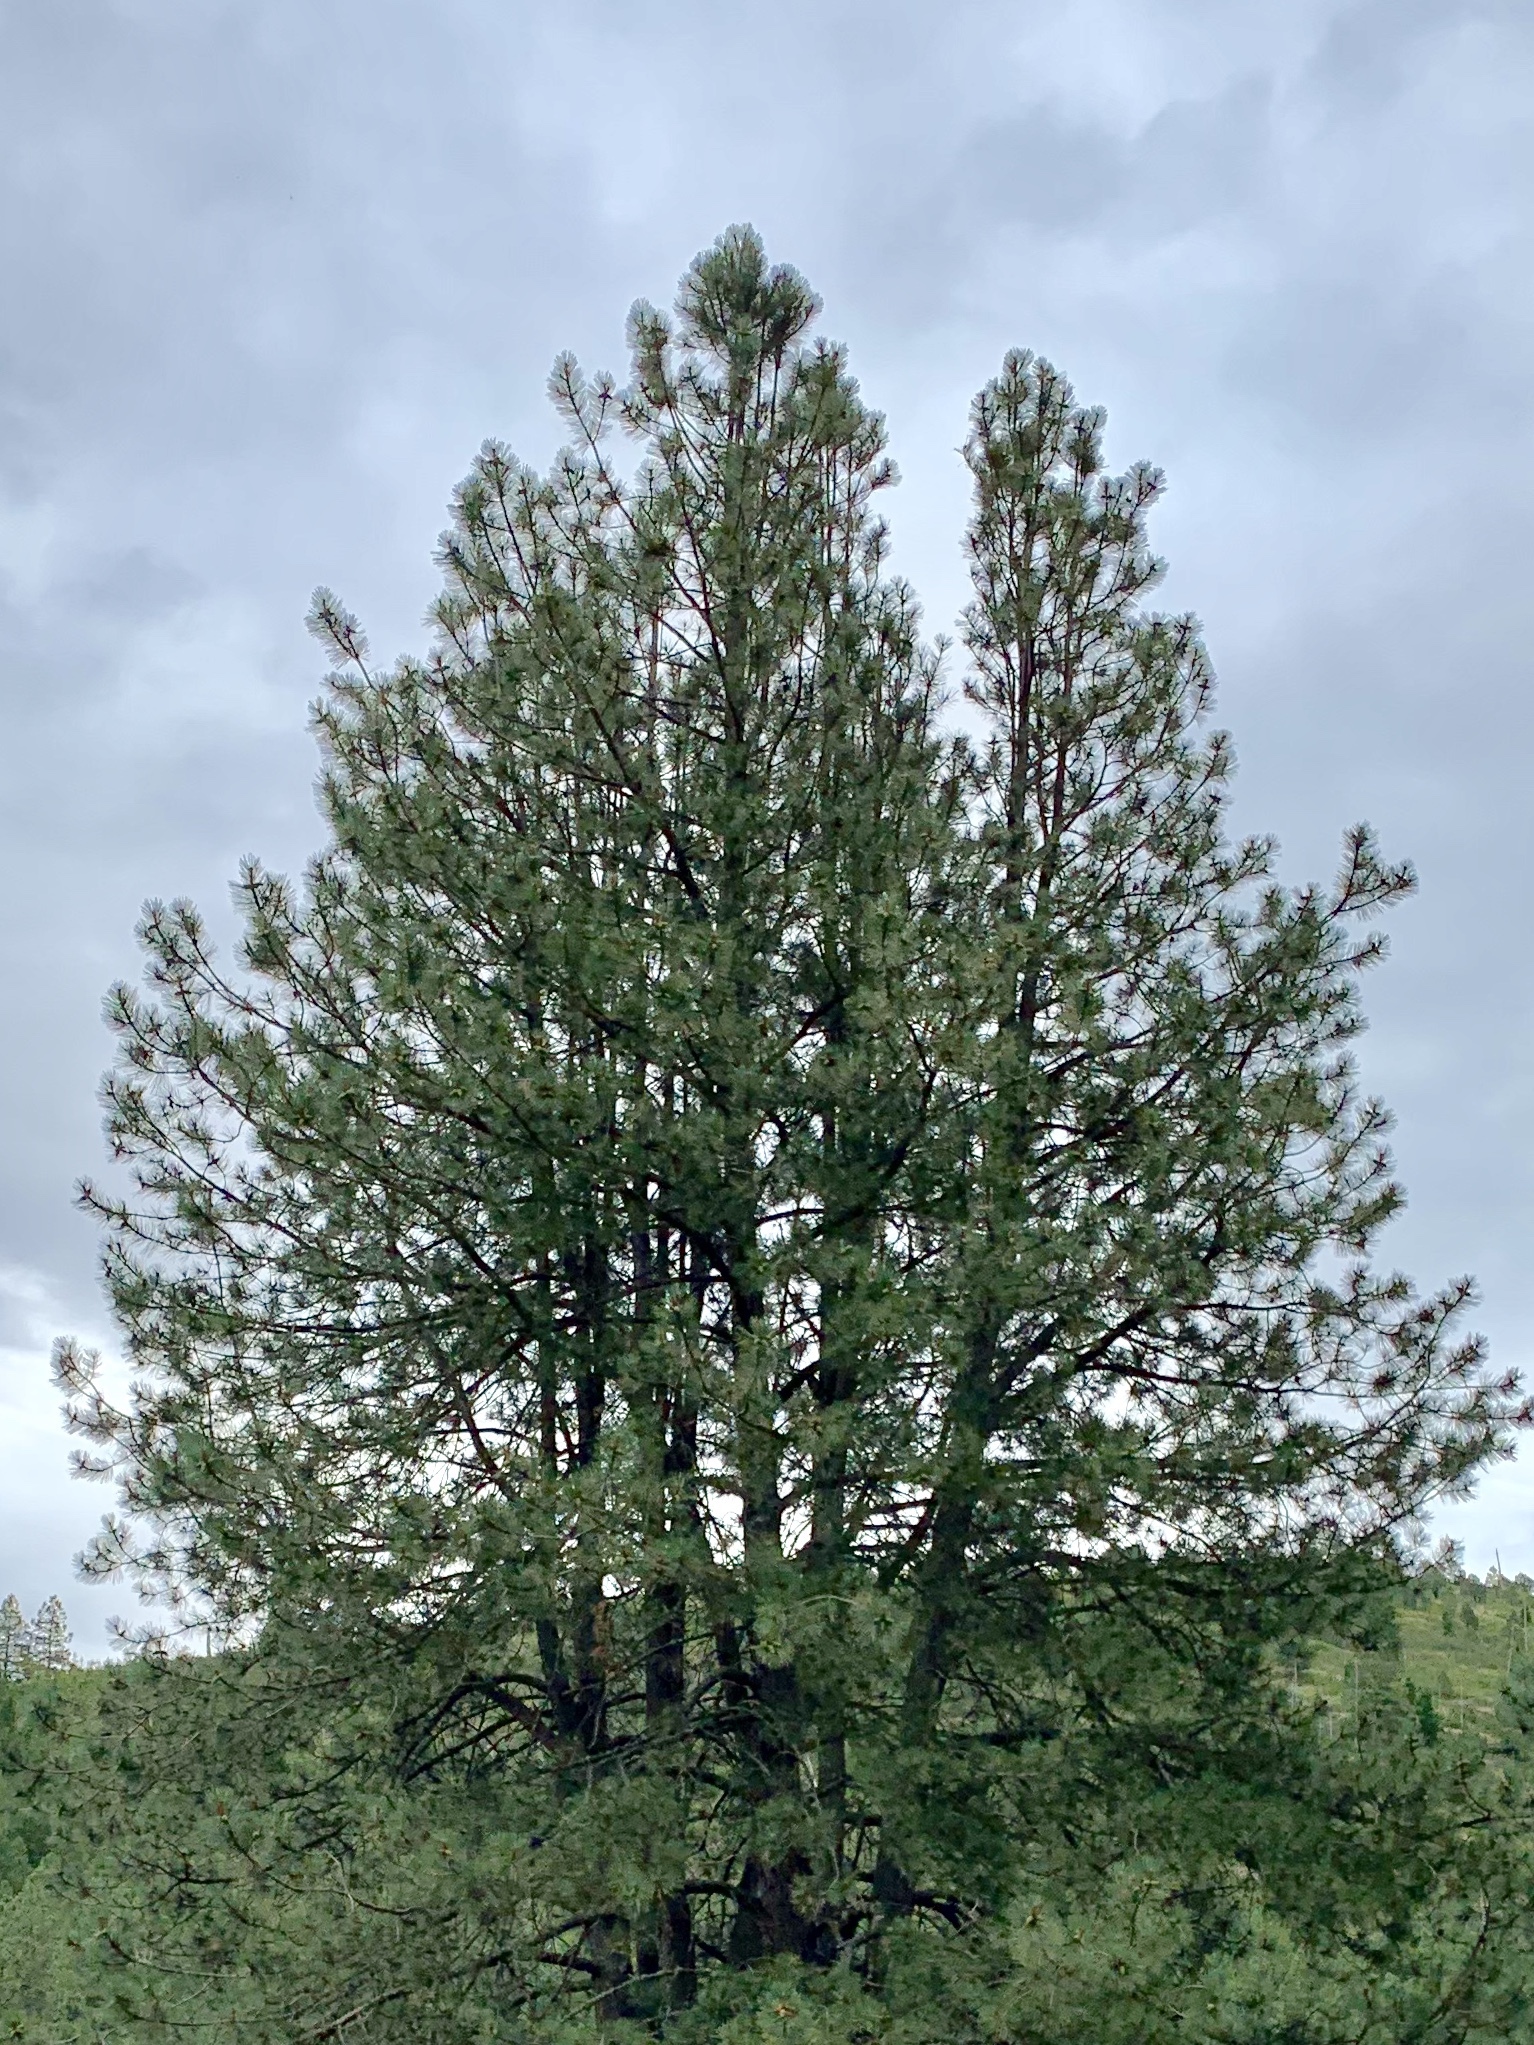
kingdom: Plantae
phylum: Tracheophyta
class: Pinopsida
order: Pinales
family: Pinaceae
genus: Pinus
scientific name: Pinus ponderosa
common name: Western yellow-pine
